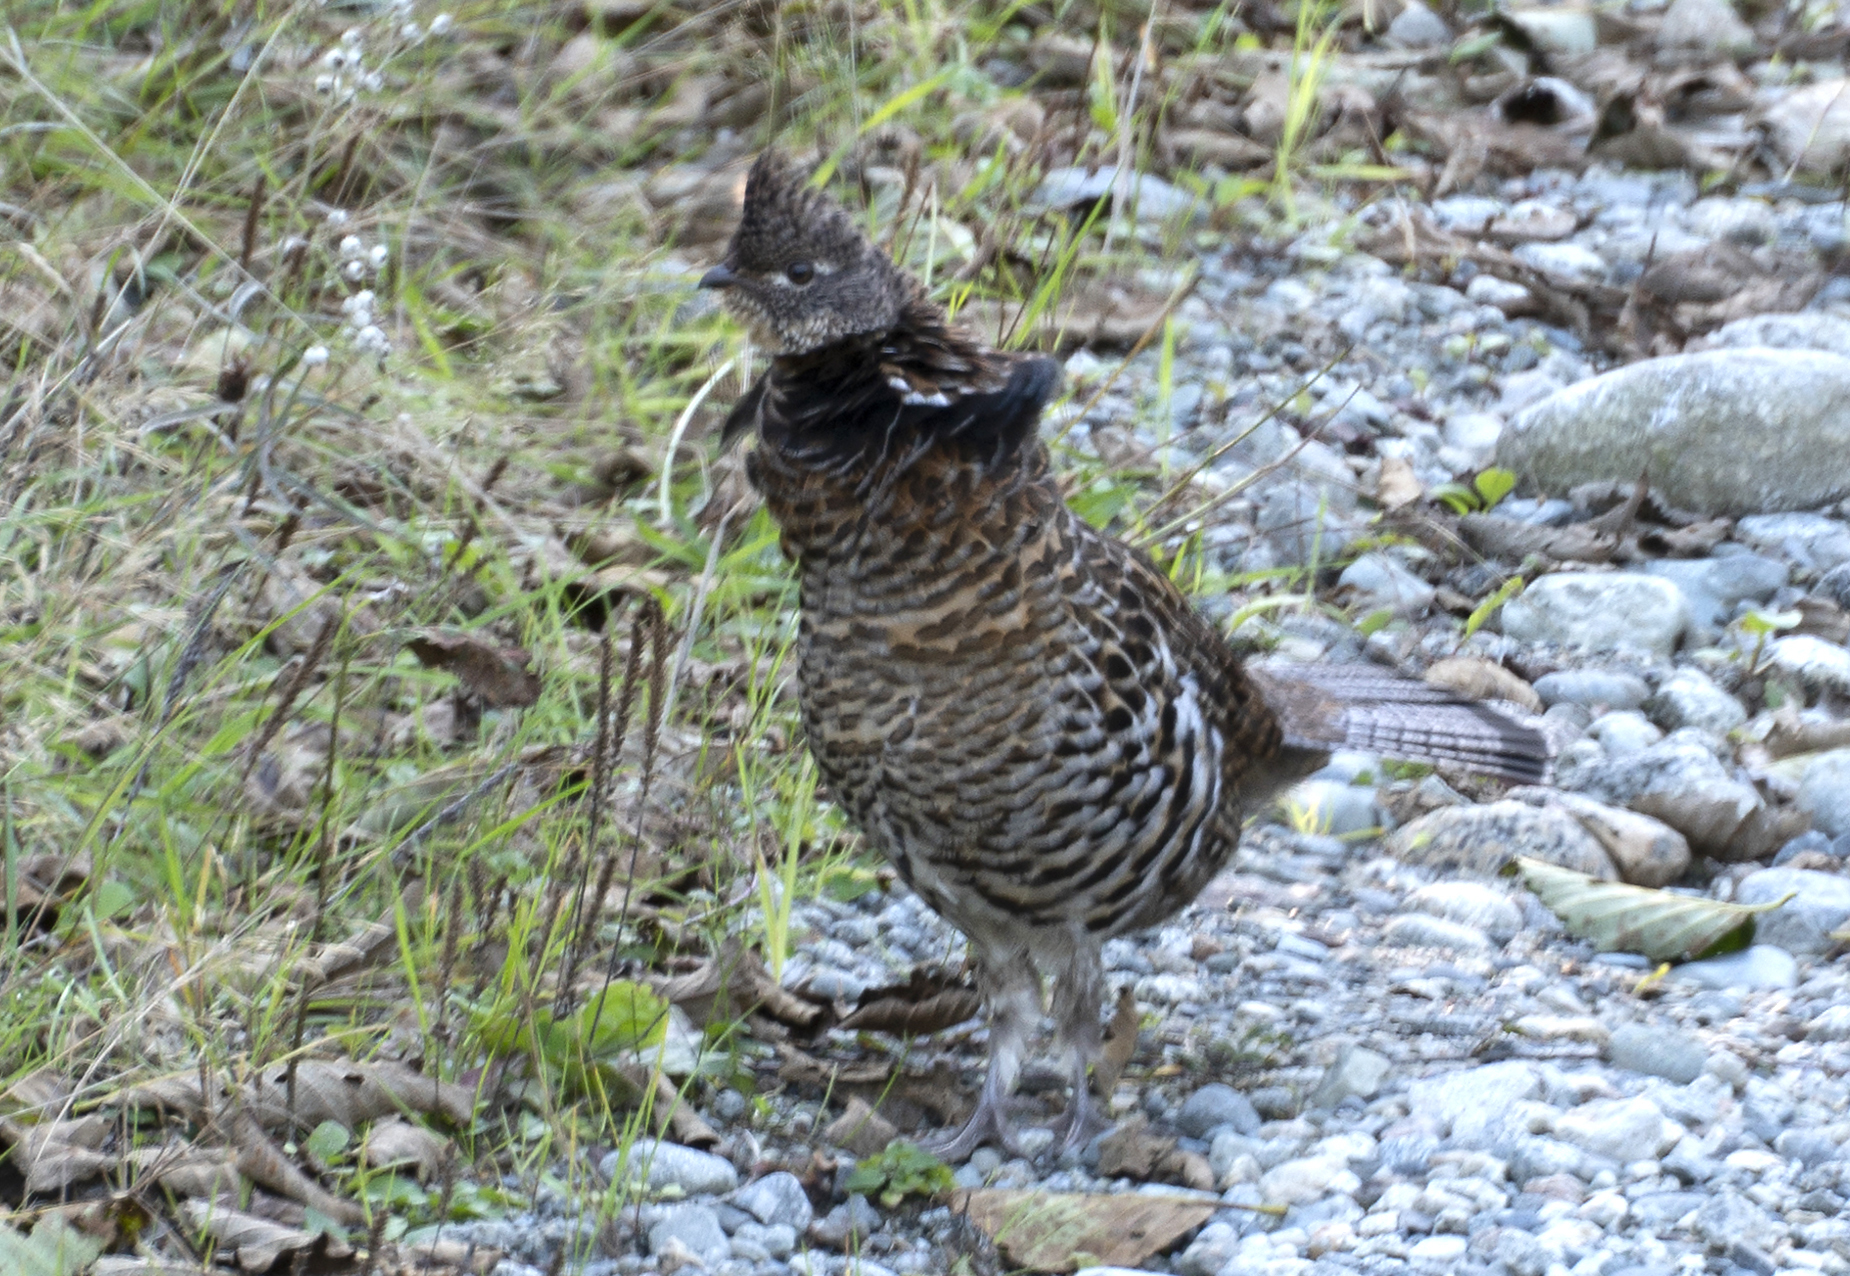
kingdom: Animalia
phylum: Chordata
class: Aves
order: Galliformes
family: Phasianidae
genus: Bonasa
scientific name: Bonasa umbellus
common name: Ruffed grouse
